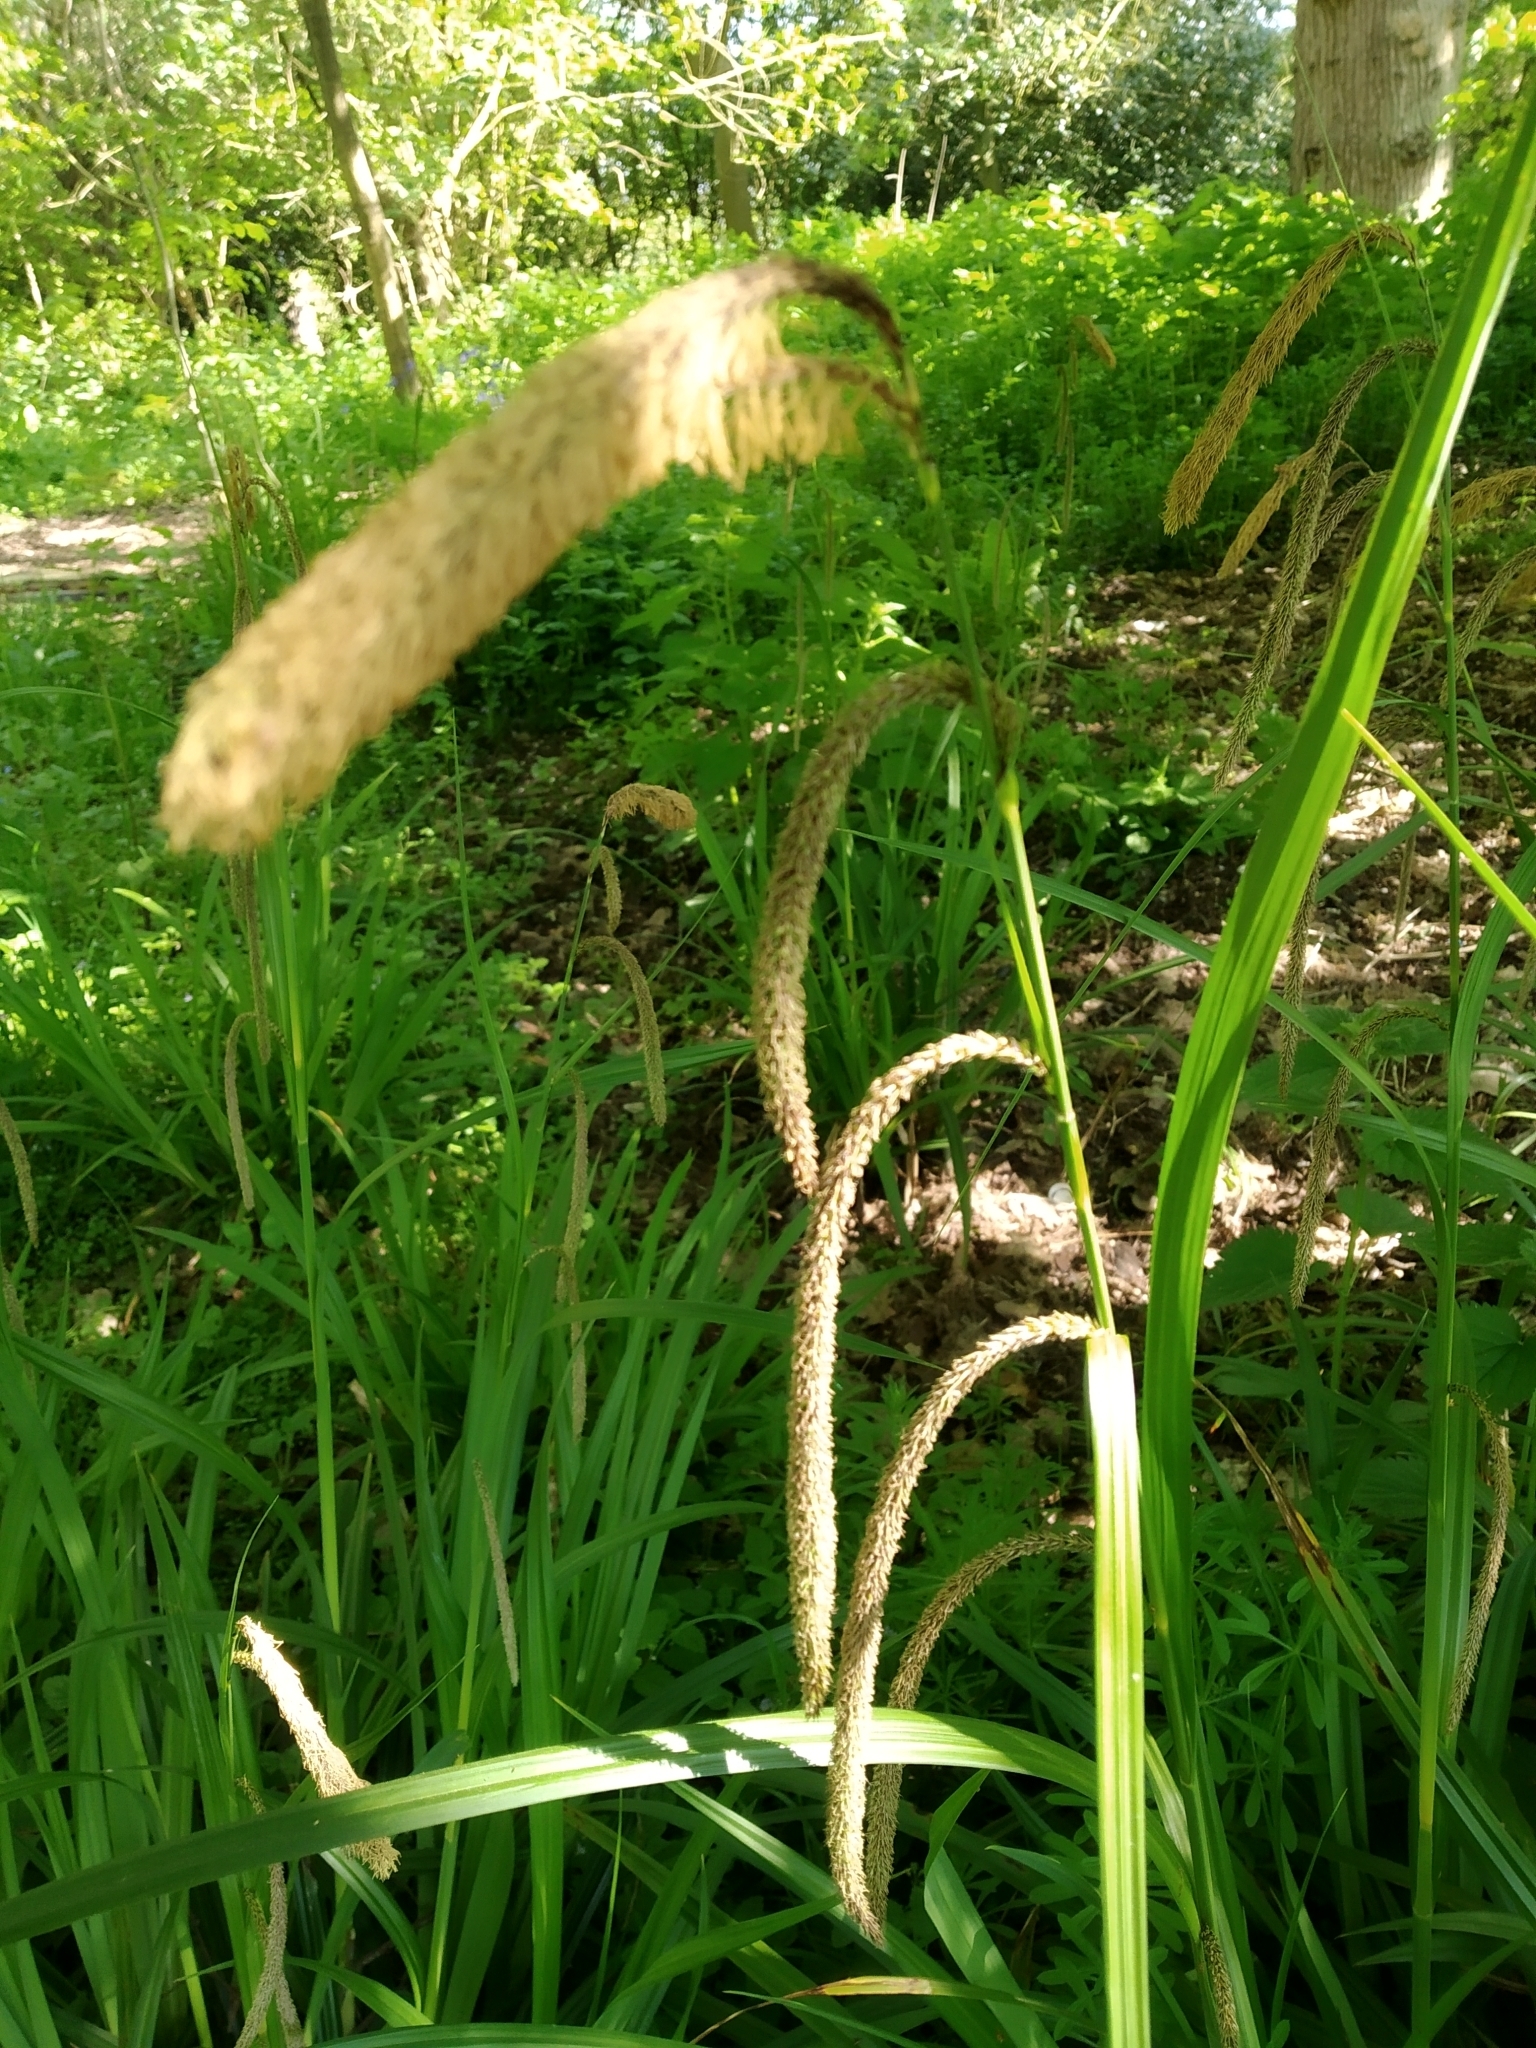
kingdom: Plantae
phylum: Tracheophyta
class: Liliopsida
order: Poales
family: Cyperaceae
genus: Carex
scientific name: Carex pendula
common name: Pendulous sedge
